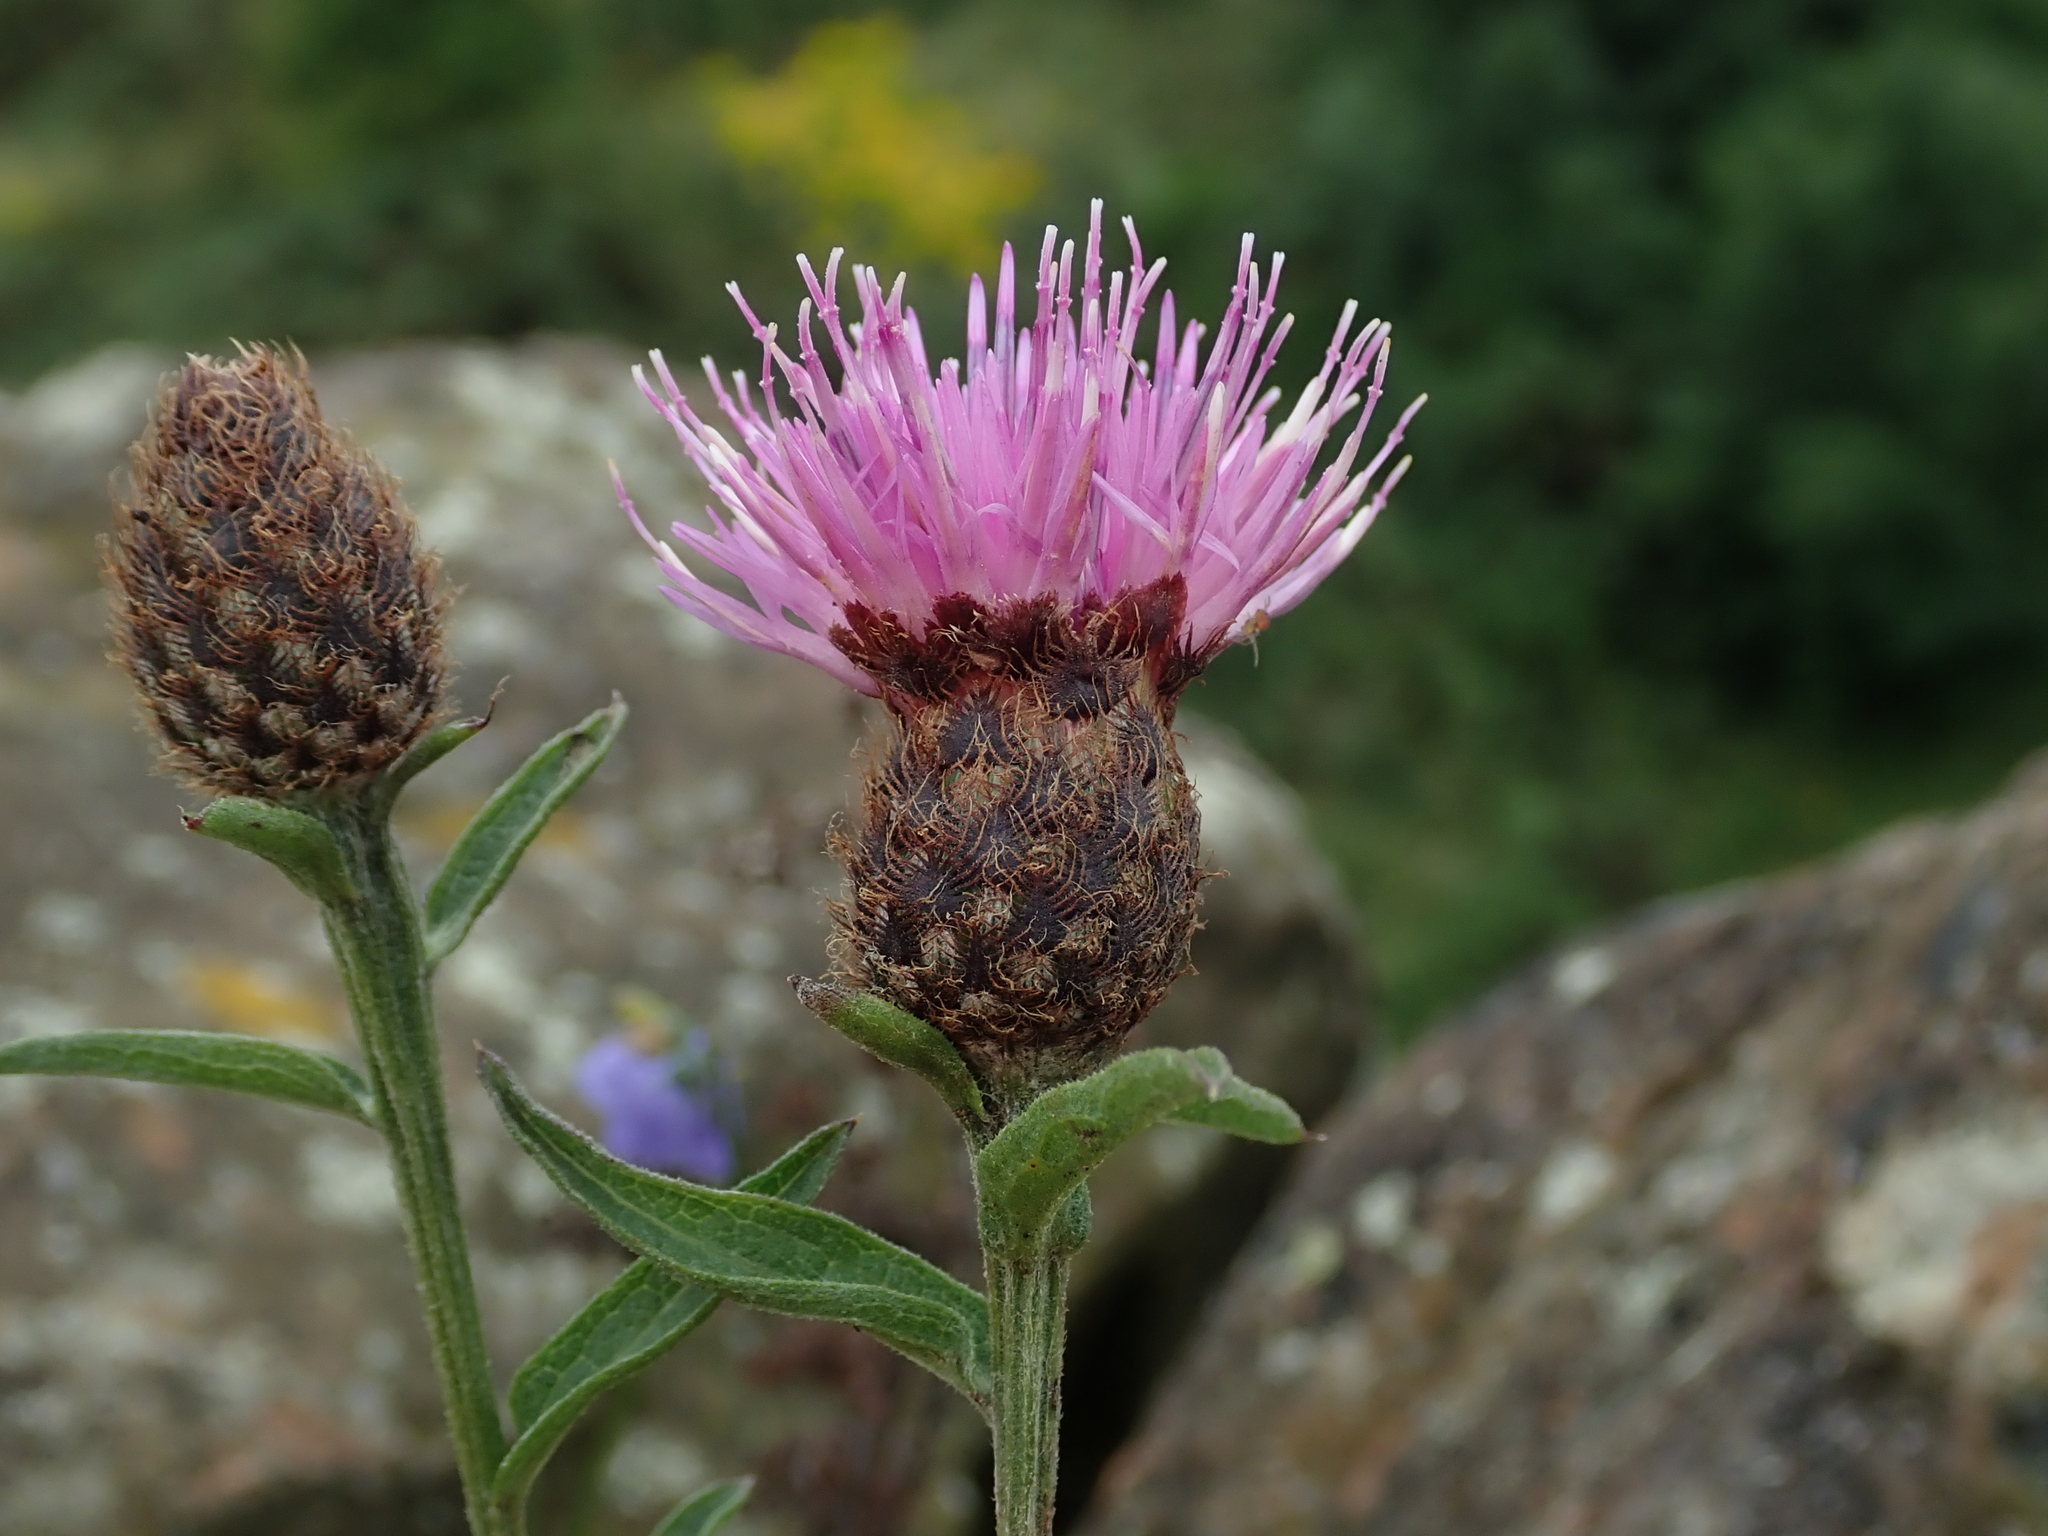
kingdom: Plantae
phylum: Tracheophyta
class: Magnoliopsida
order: Asterales
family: Asteraceae
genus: Centaurea
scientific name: Centaurea nigra
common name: Lesser knapweed
